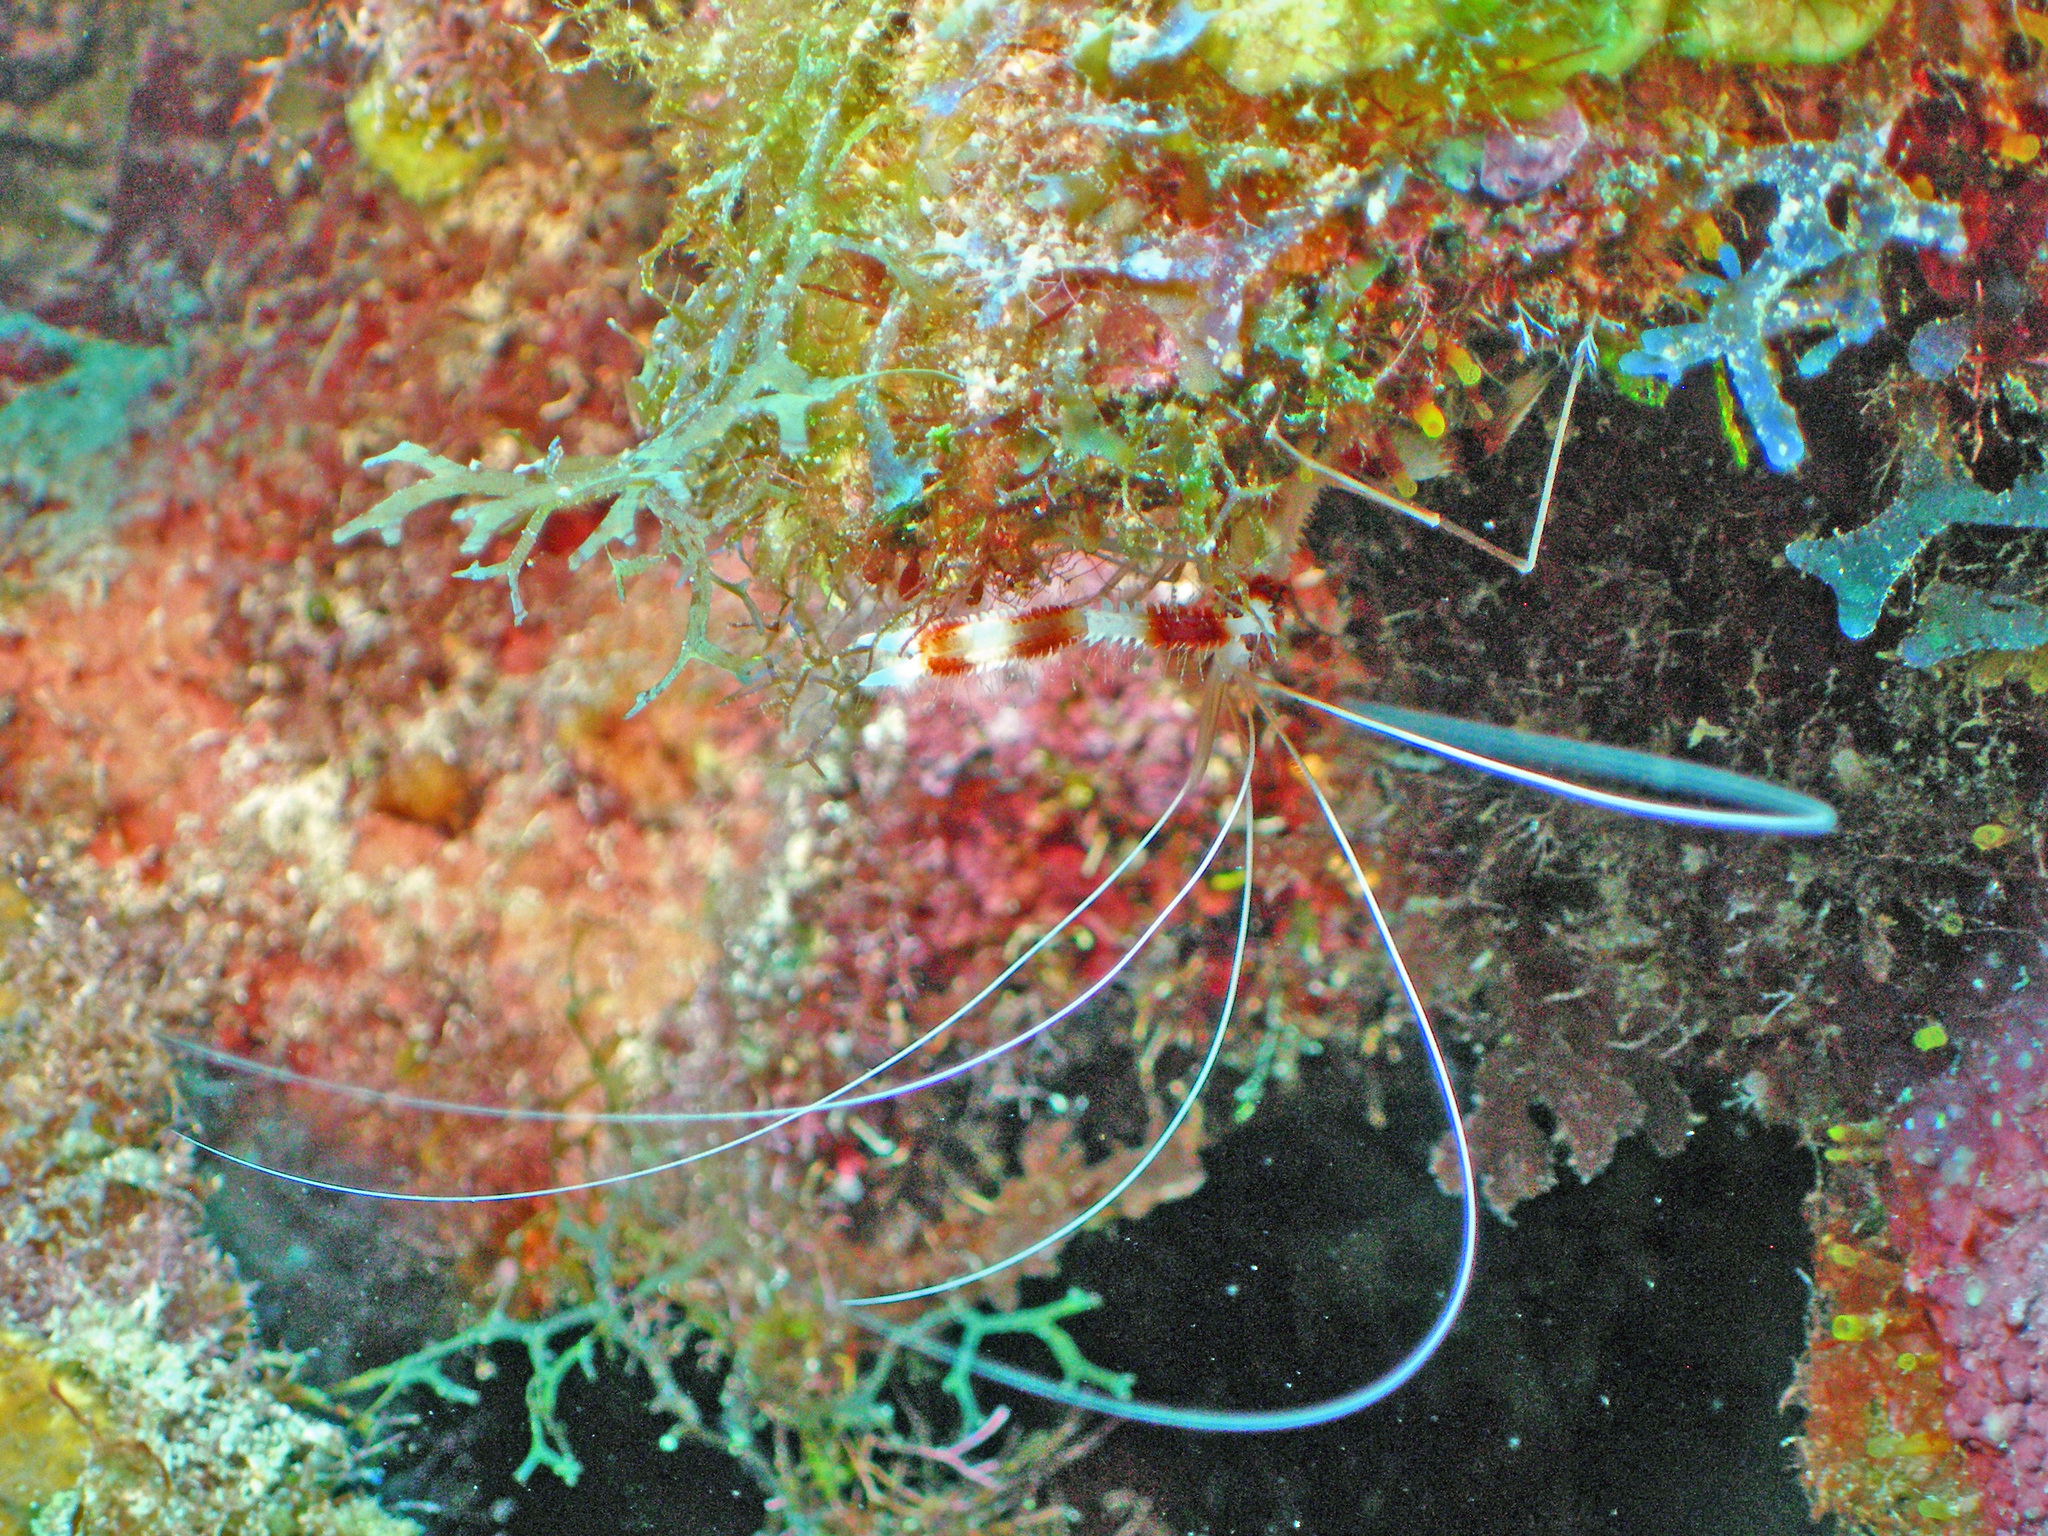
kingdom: Animalia
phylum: Arthropoda
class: Malacostraca
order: Decapoda
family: Stenopodidae
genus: Stenopus
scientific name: Stenopus hispidus
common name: Banded coral shrimp
